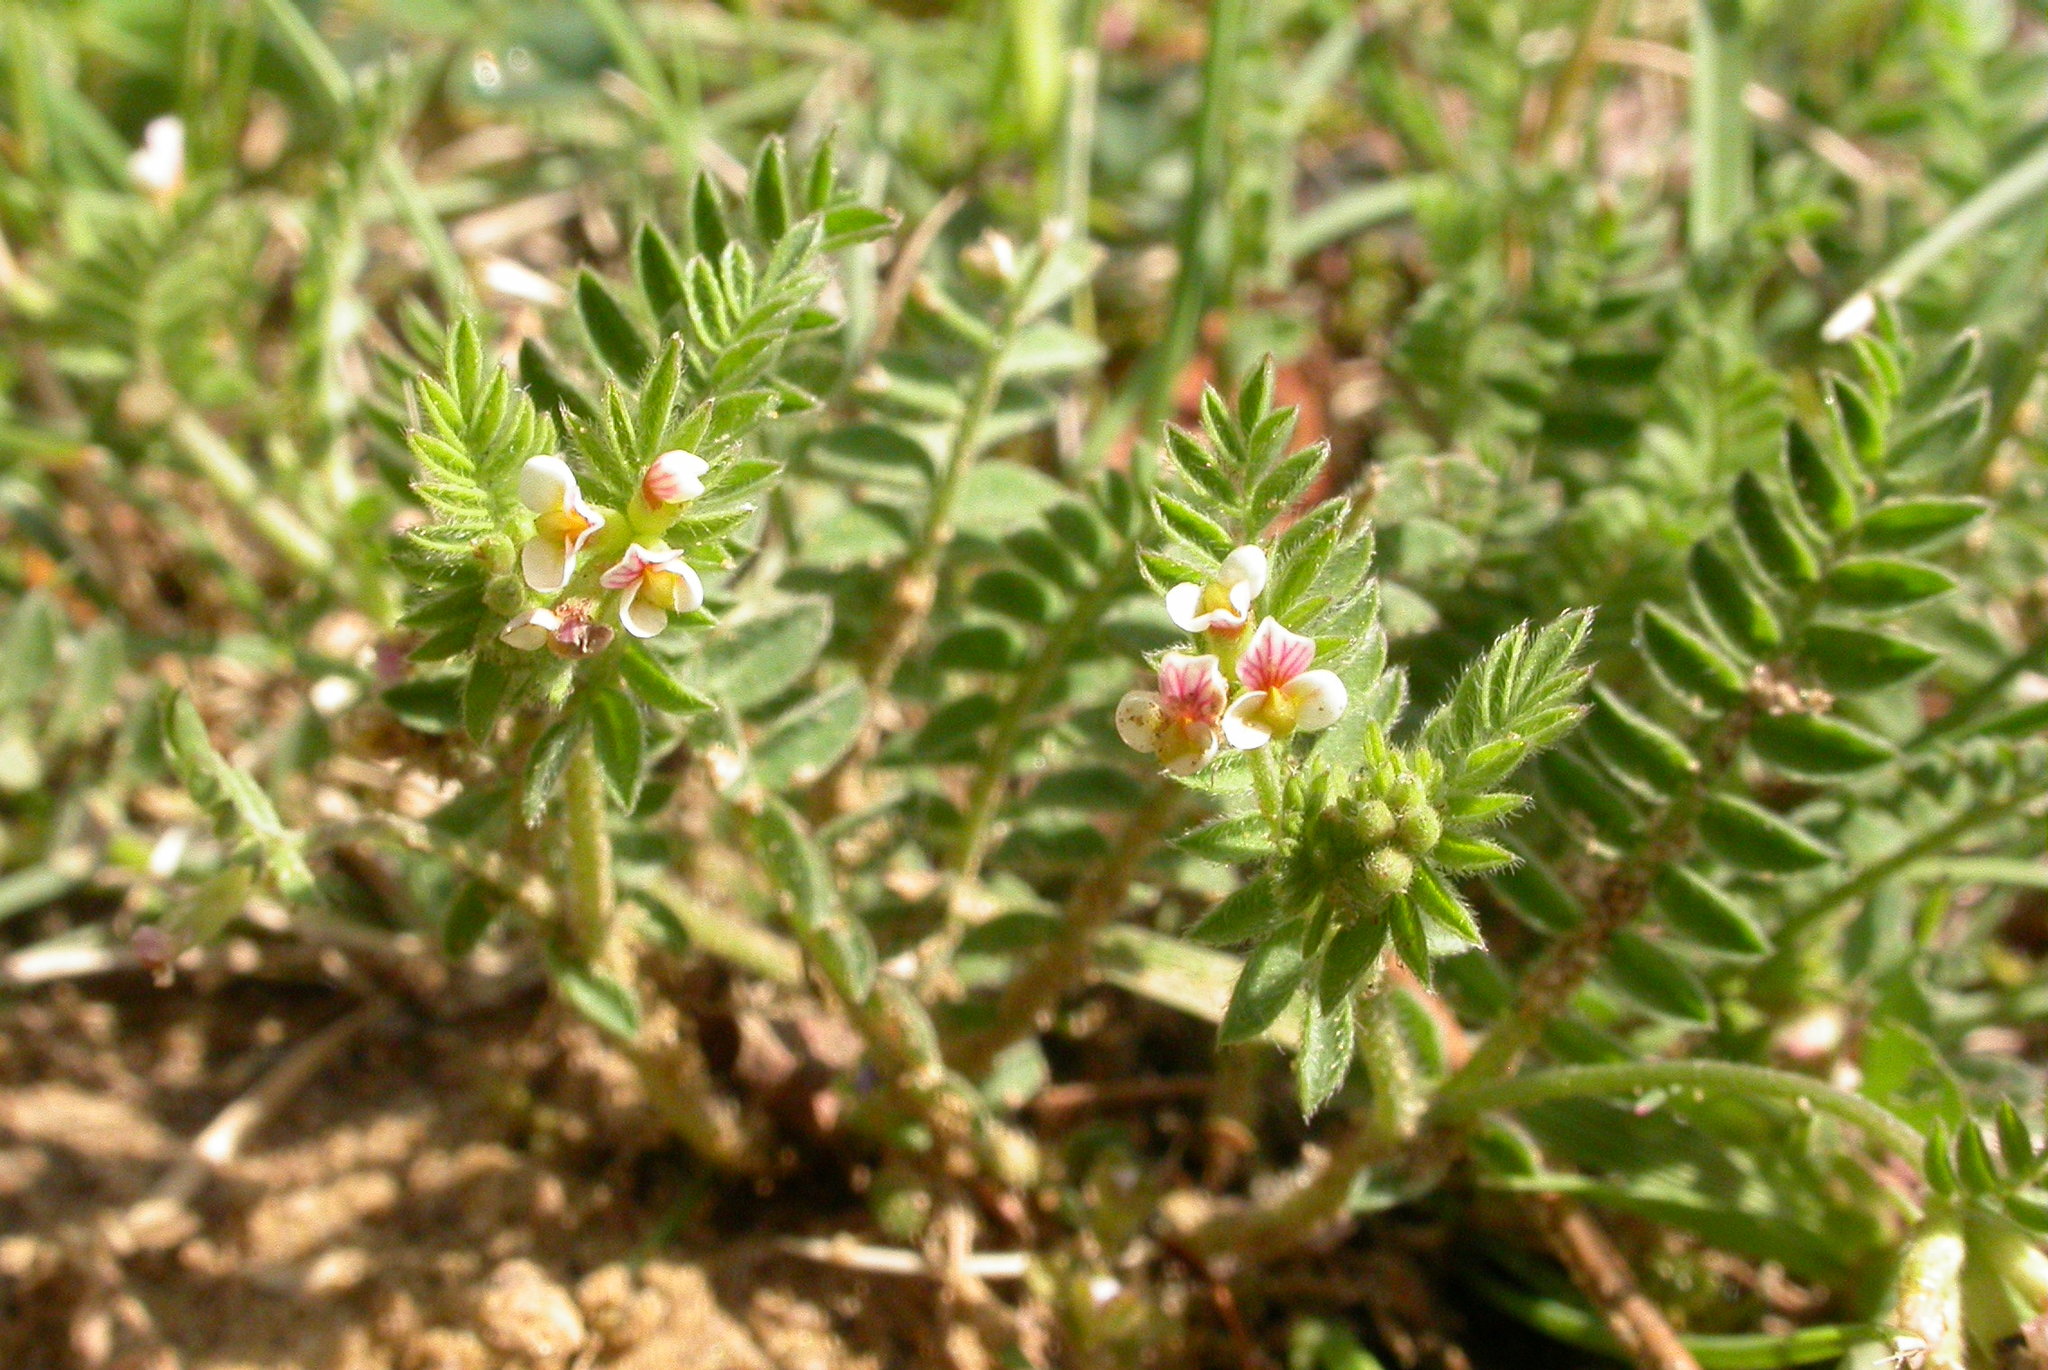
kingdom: Plantae
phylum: Tracheophyta
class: Magnoliopsida
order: Fabales
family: Fabaceae
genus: Ornithopus
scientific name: Ornithopus perpusillus
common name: Bird's-foot
